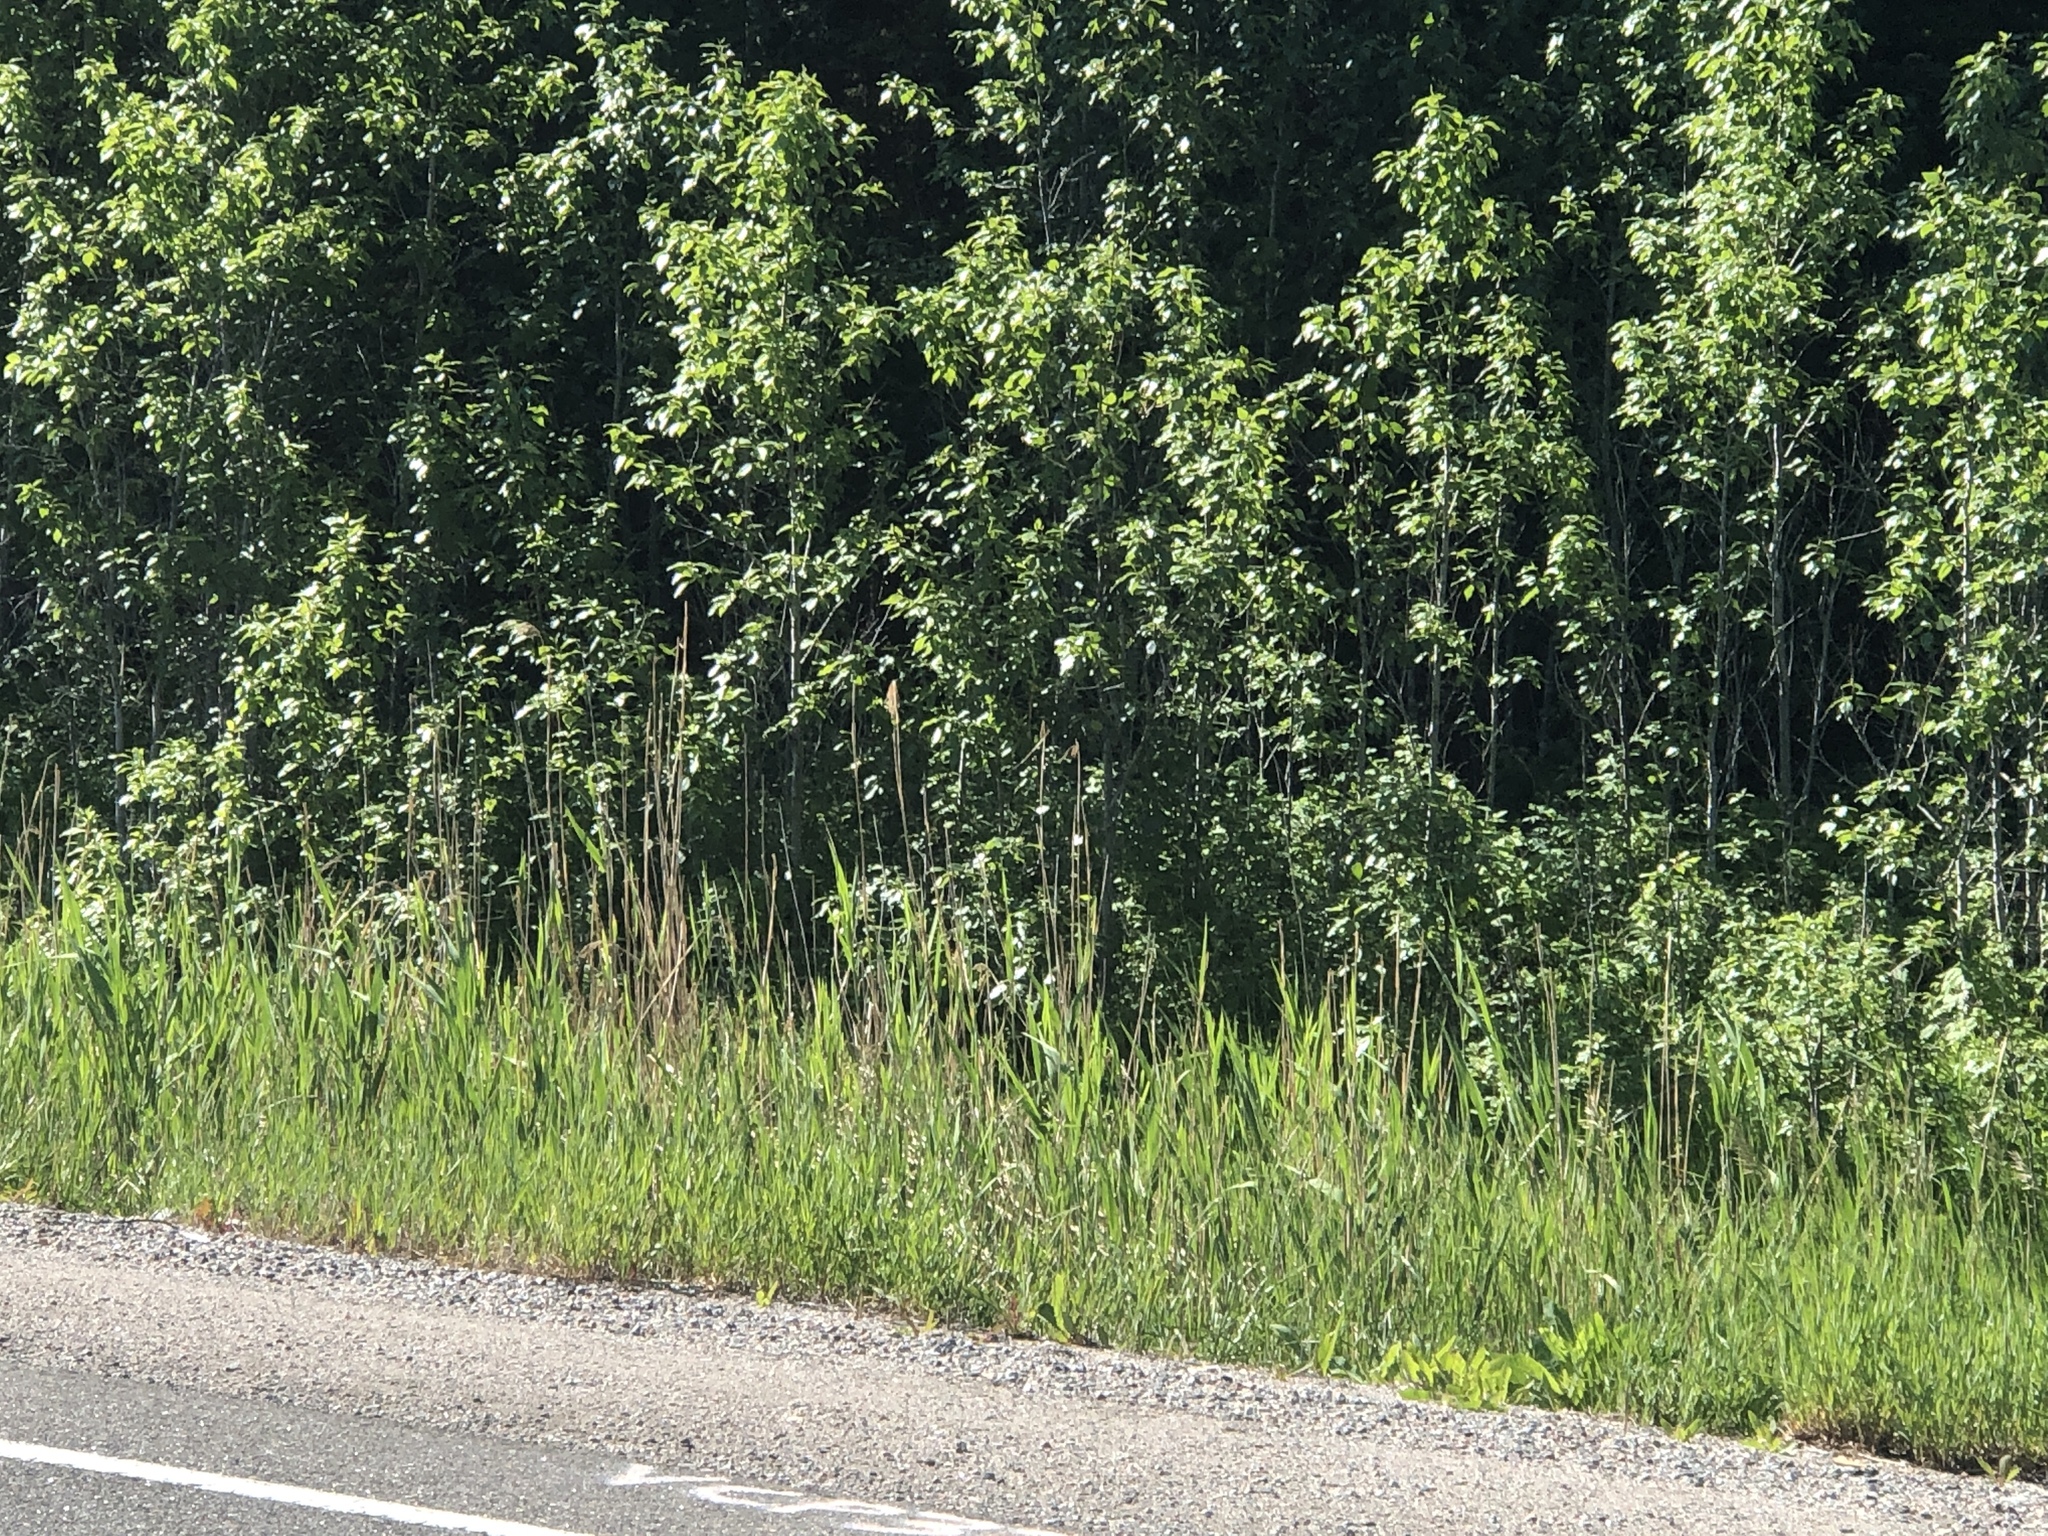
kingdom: Plantae
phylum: Tracheophyta
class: Liliopsida
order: Poales
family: Poaceae
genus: Phragmites
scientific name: Phragmites australis
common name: Common reed
